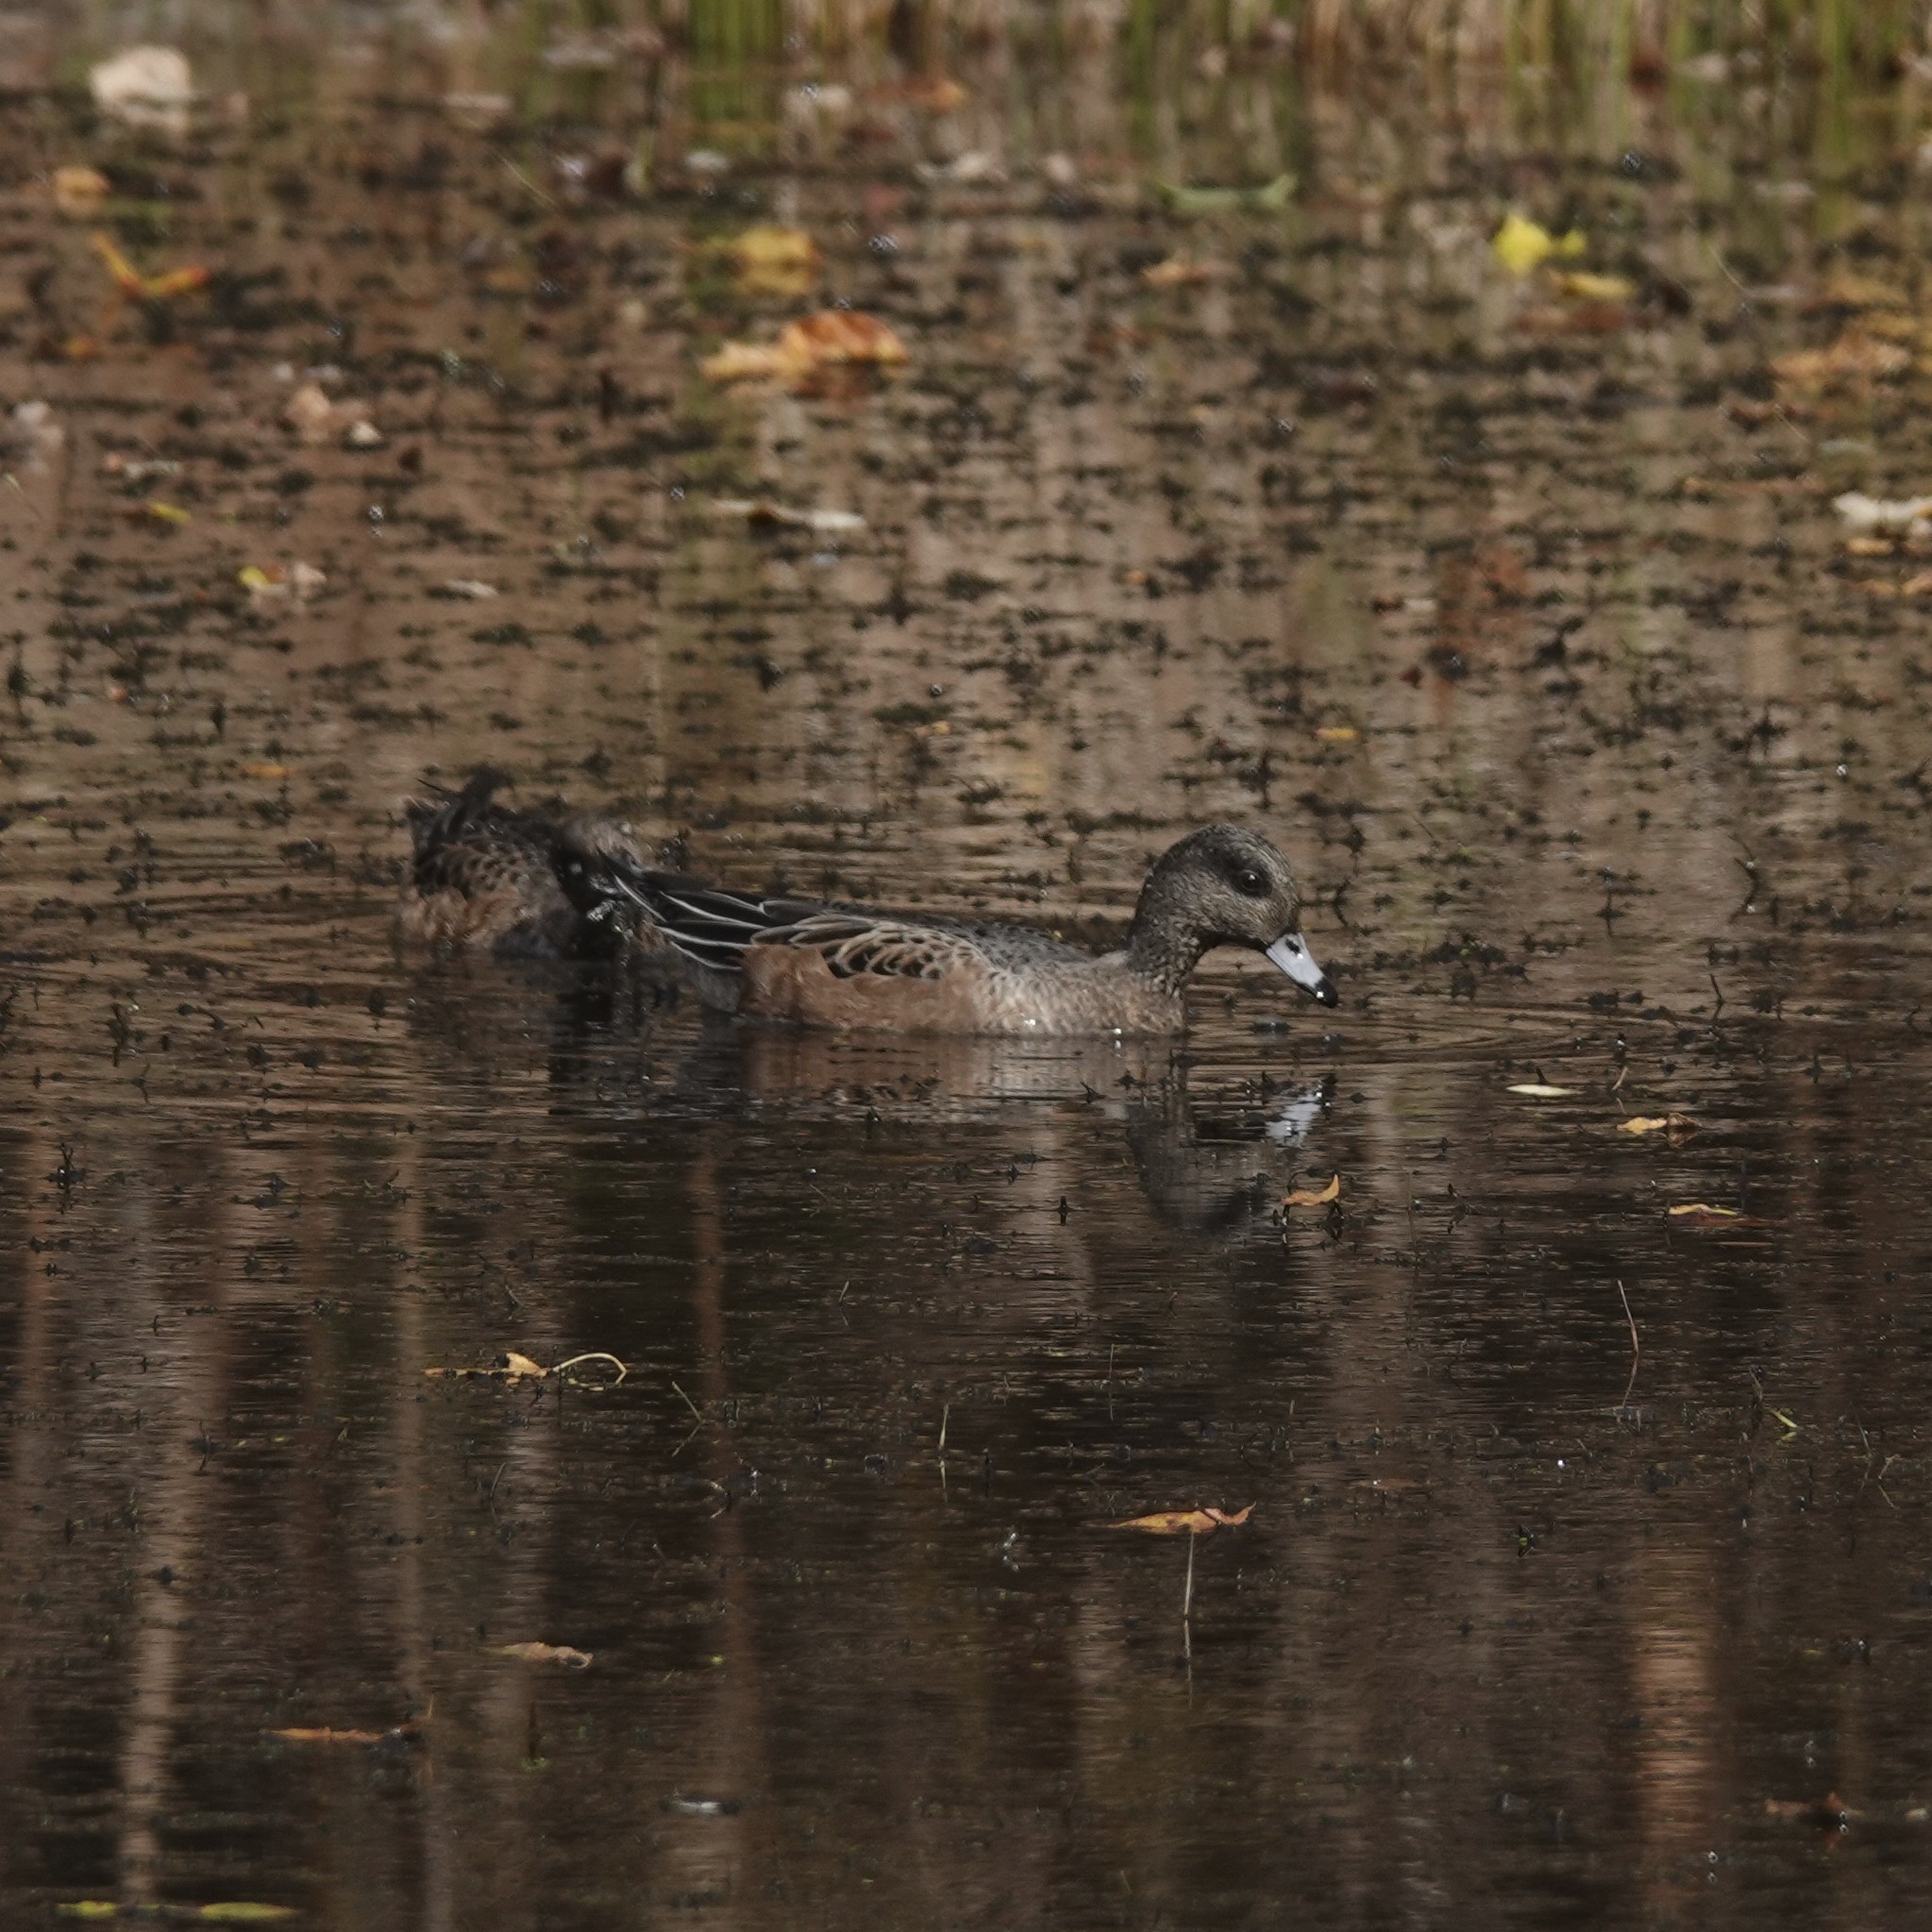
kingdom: Animalia
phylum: Chordata
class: Aves
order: Anseriformes
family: Anatidae
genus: Mareca
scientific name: Mareca americana
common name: American wigeon
